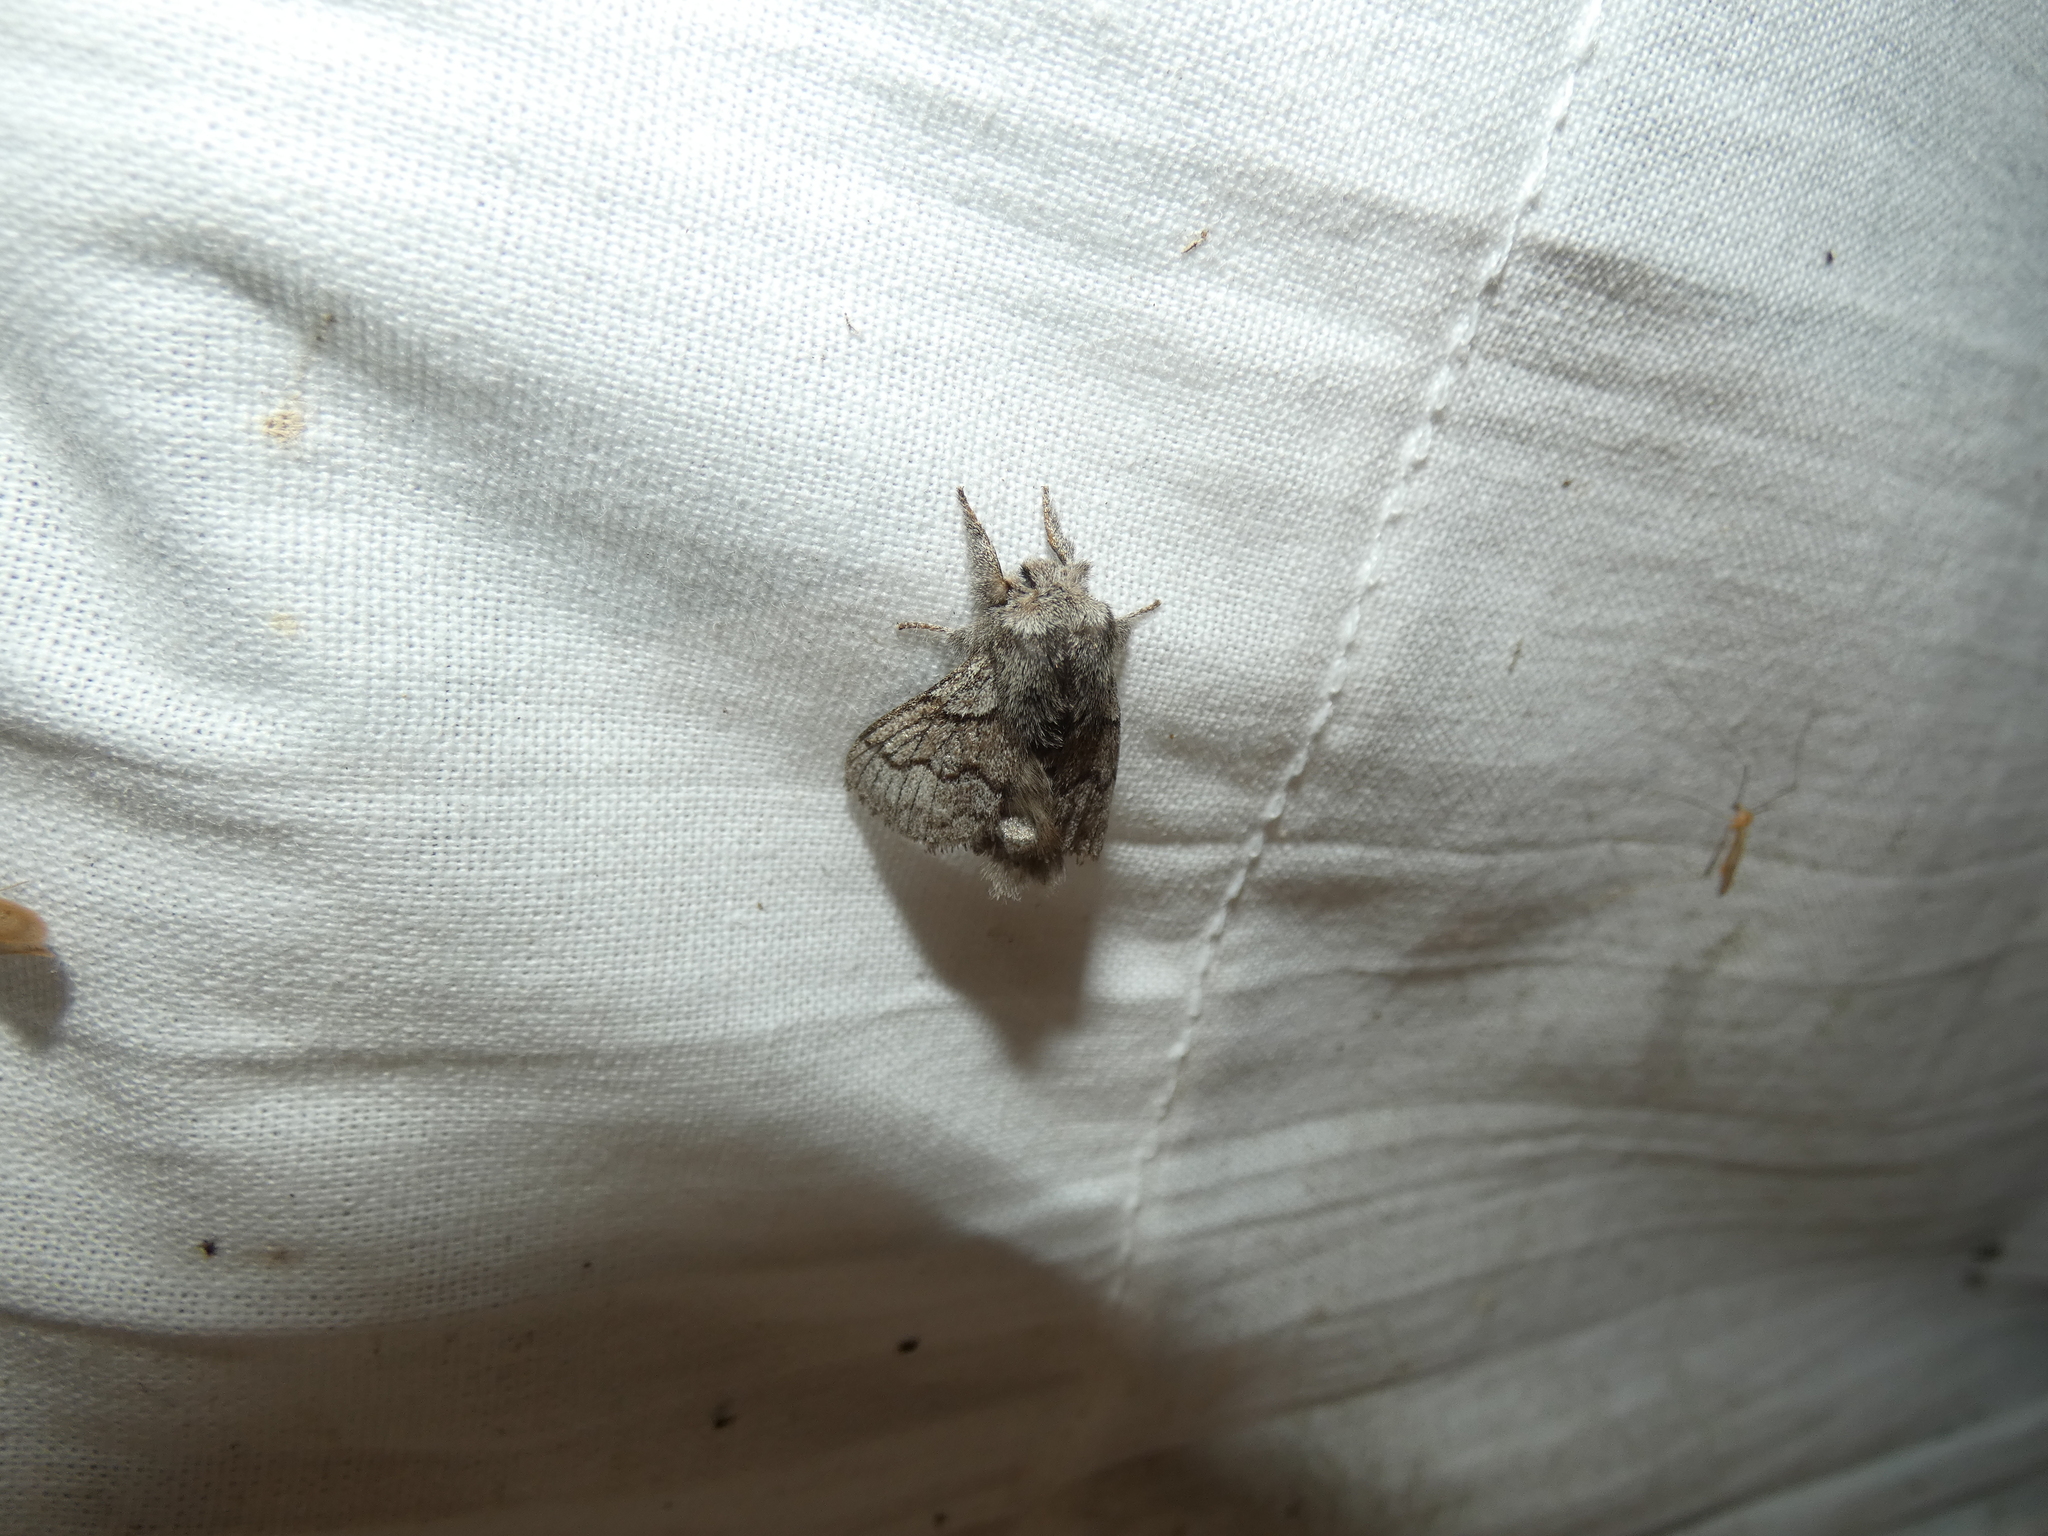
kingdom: Animalia
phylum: Arthropoda
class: Insecta
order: Lepidoptera
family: Lasiocampidae
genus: Trichiura
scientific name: Trichiura crataegi
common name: Pale eggar
